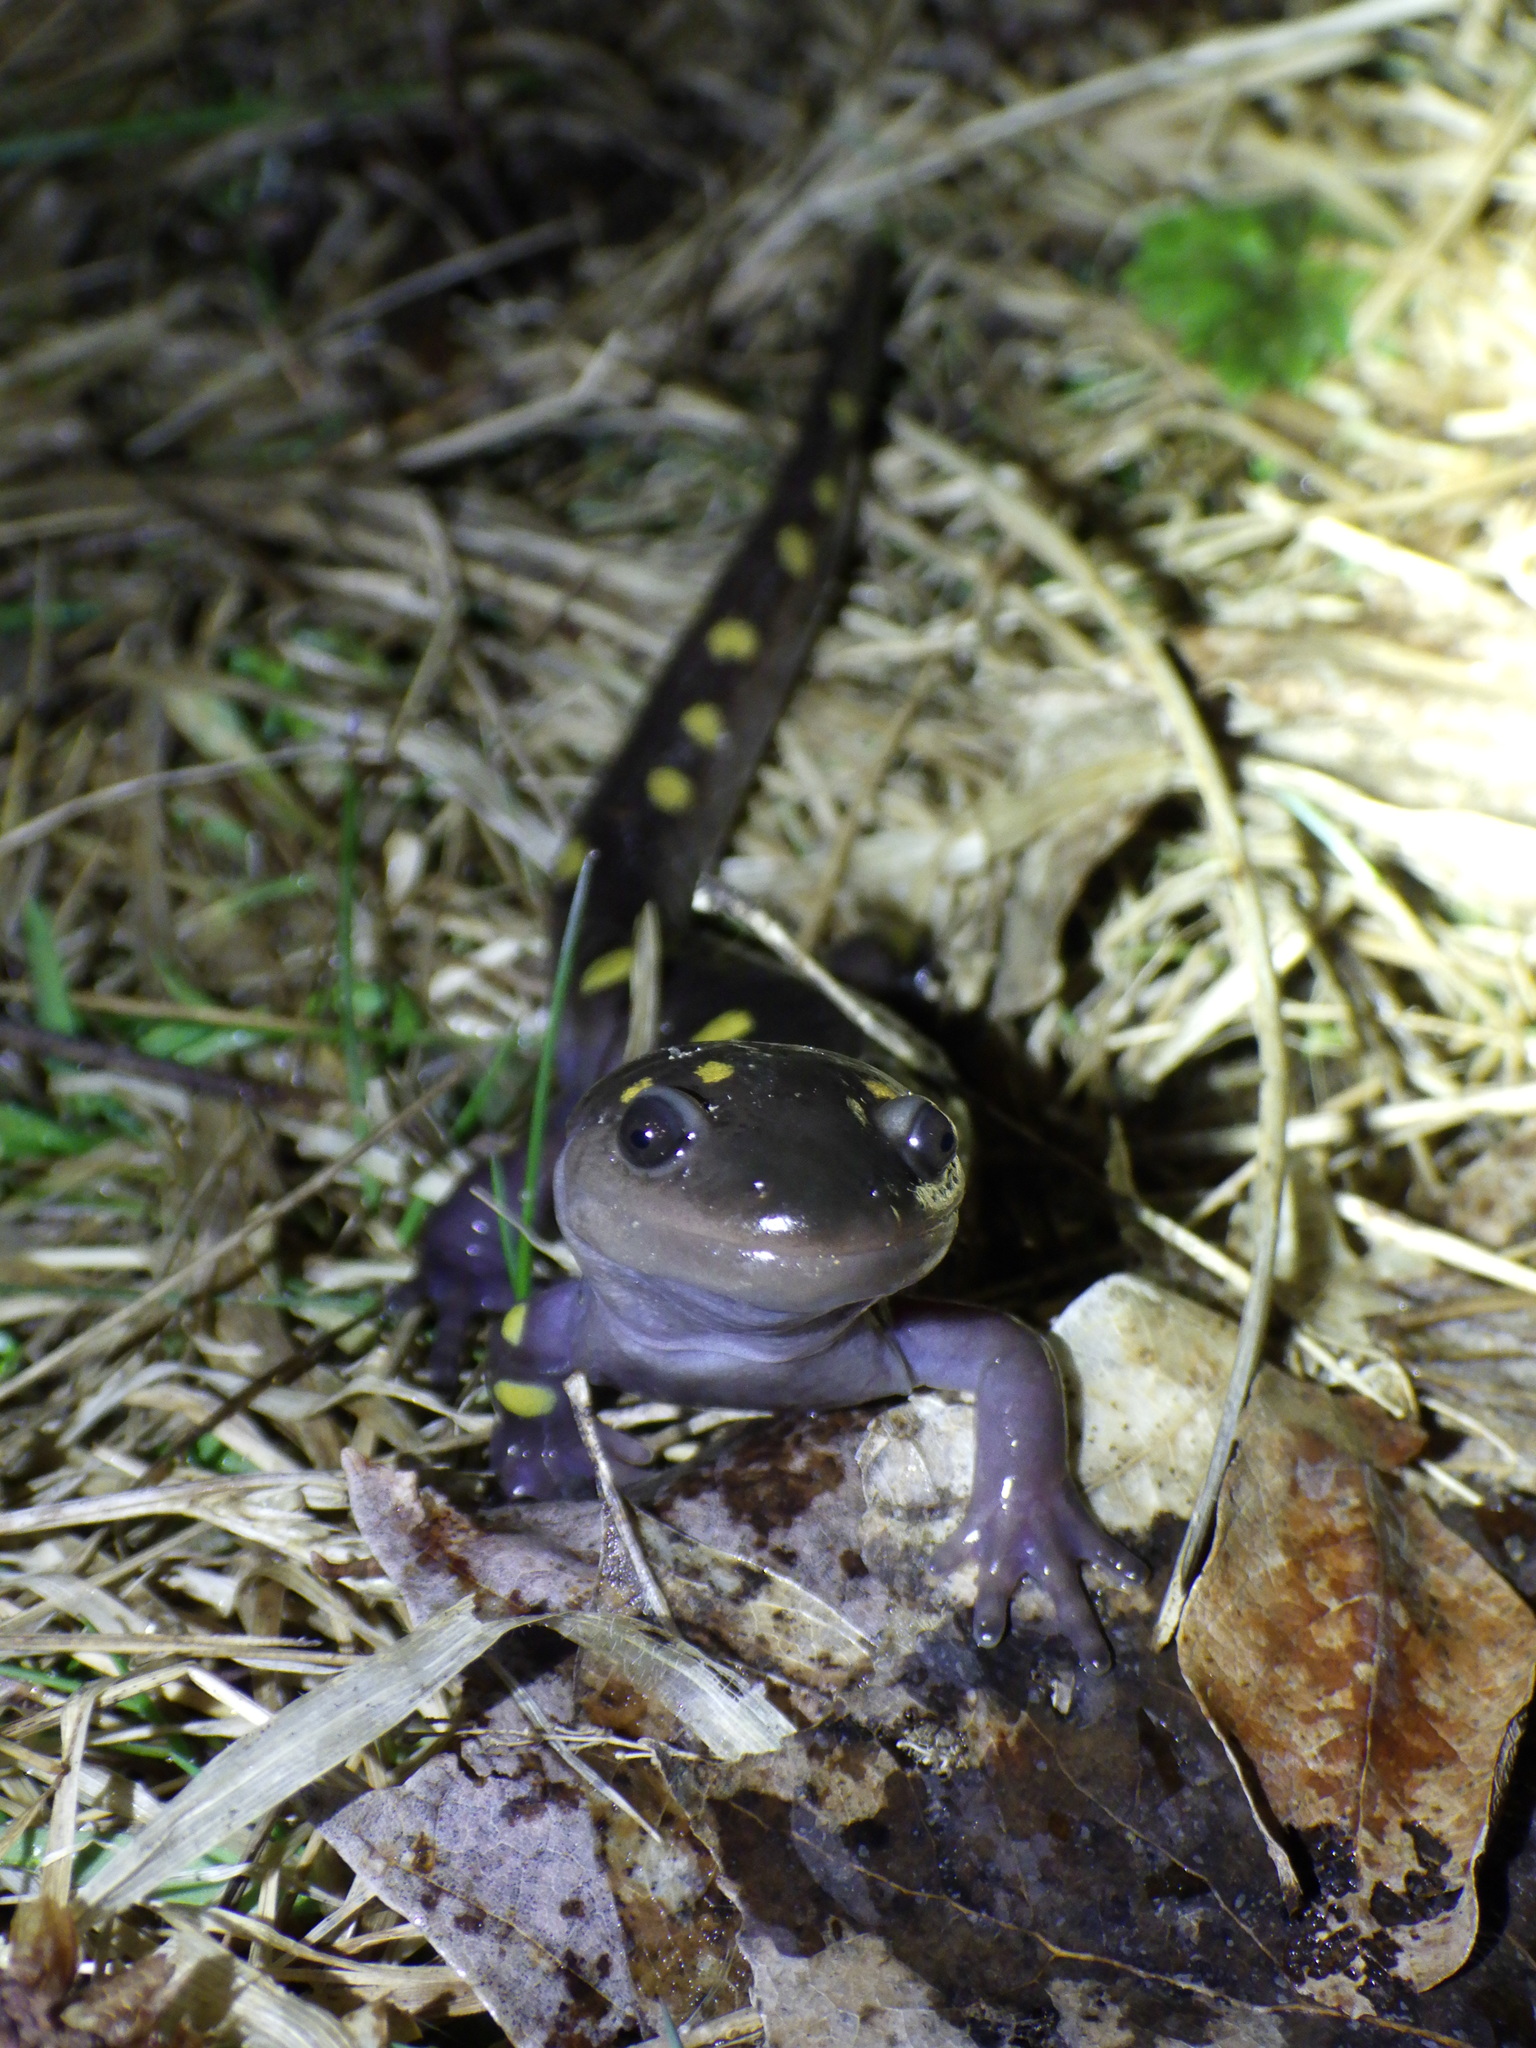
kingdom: Animalia
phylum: Chordata
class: Amphibia
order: Caudata
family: Ambystomatidae
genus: Ambystoma
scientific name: Ambystoma maculatum
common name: Spotted salamander
